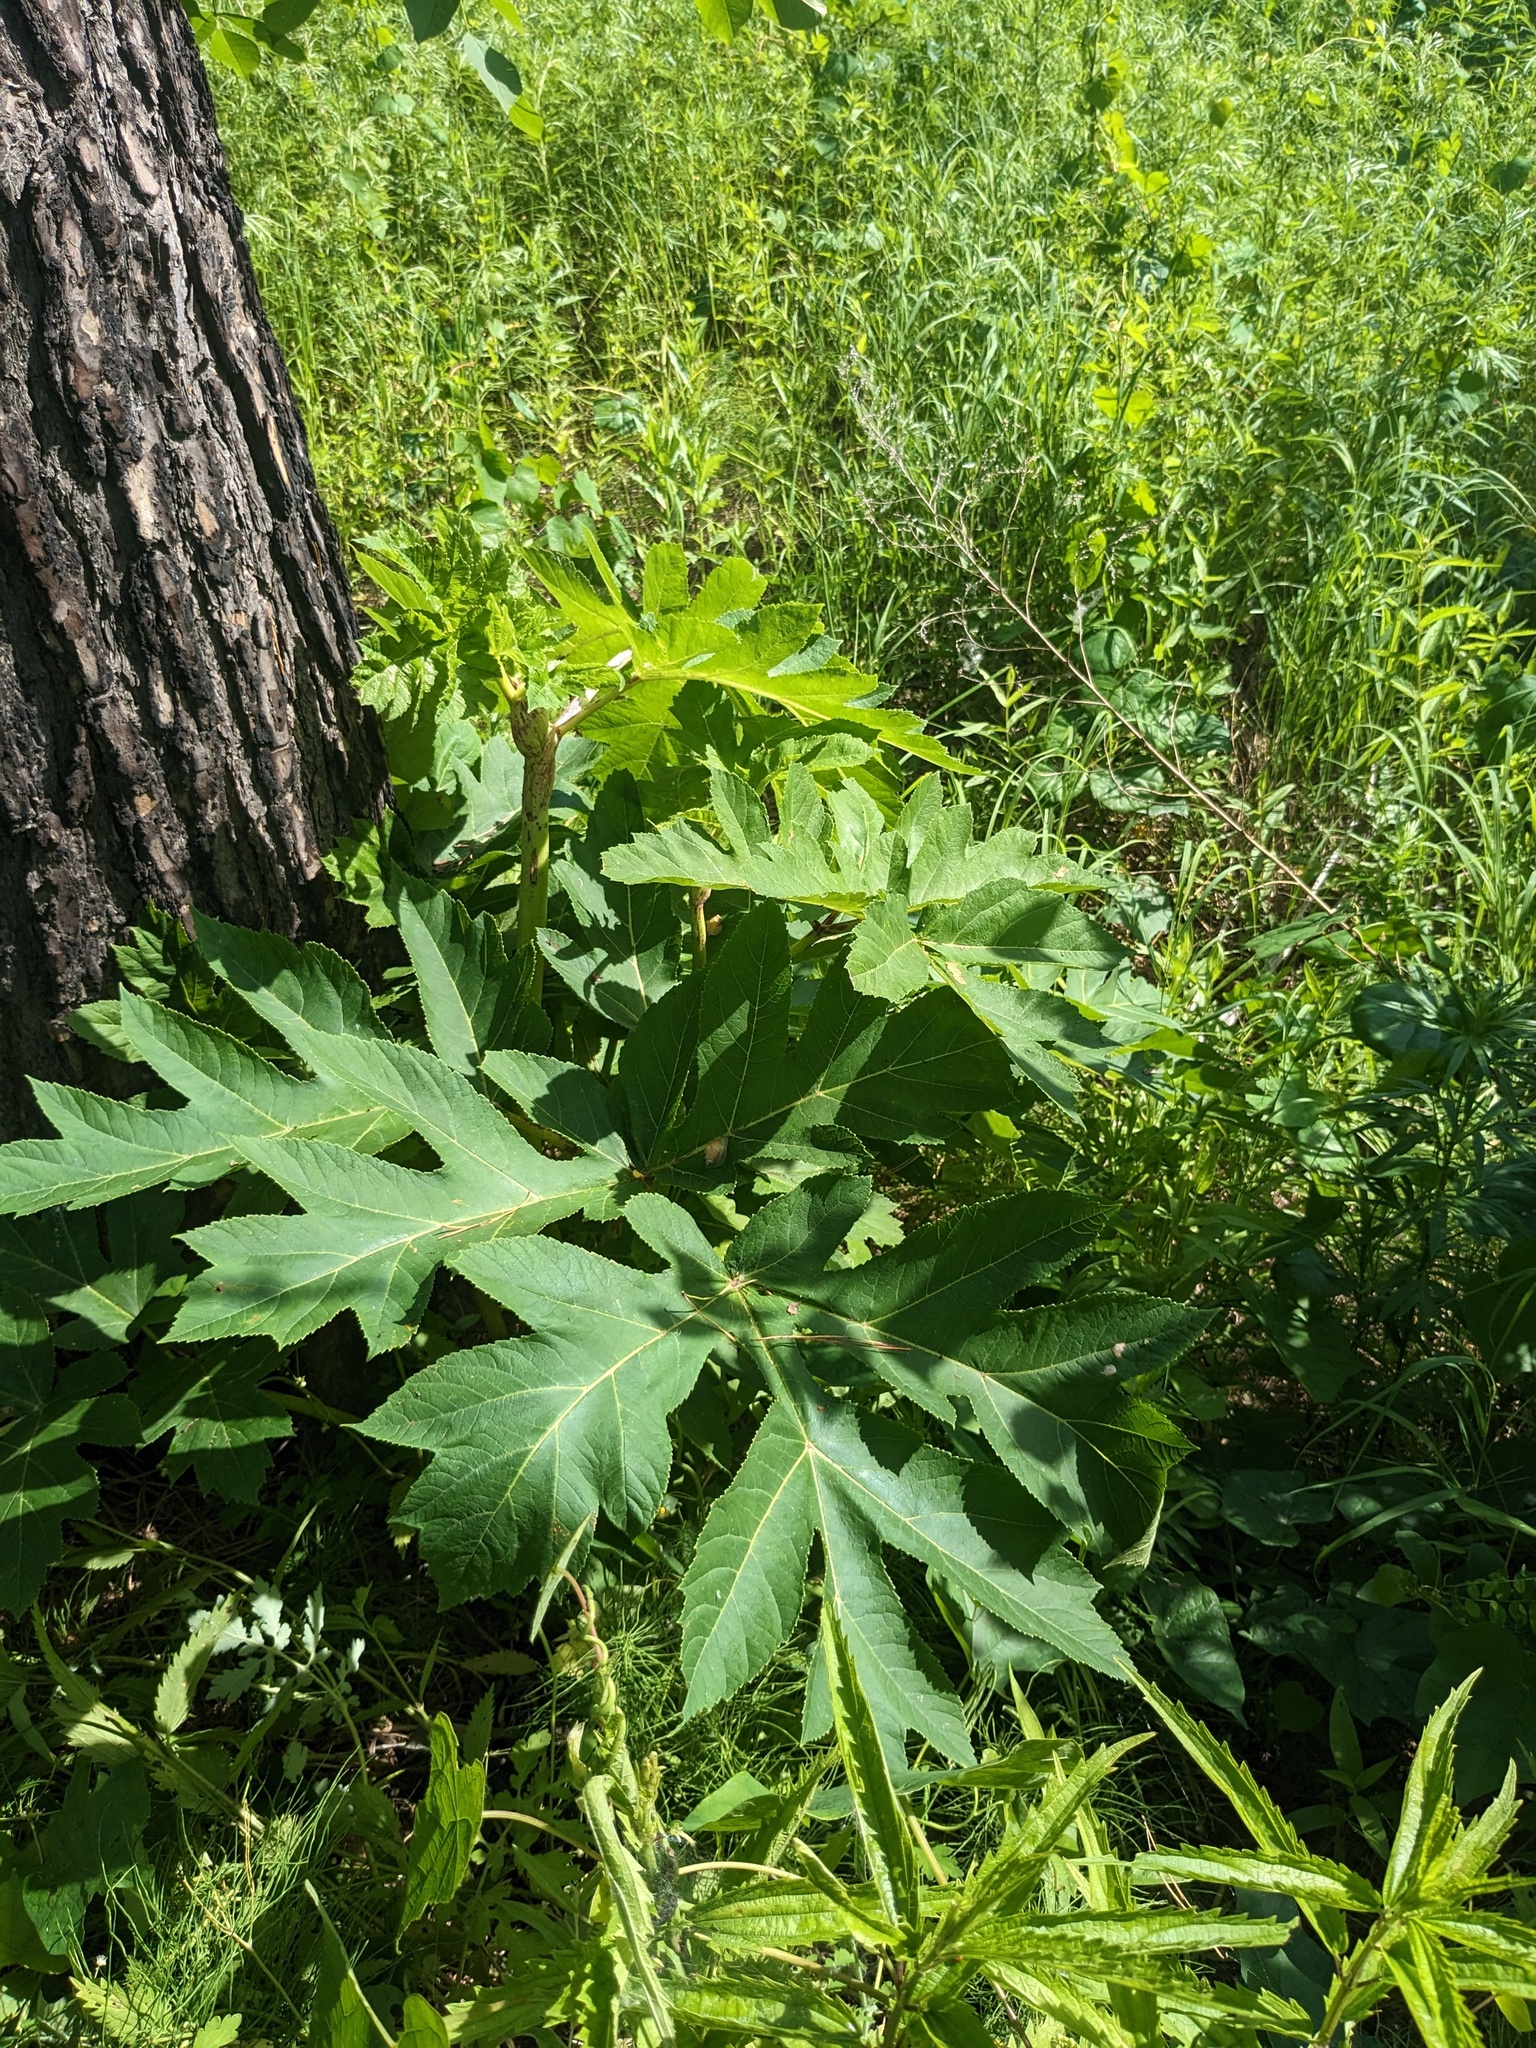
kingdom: Plantae
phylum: Tracheophyta
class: Magnoliopsida
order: Apiales
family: Apiaceae
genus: Heracleum
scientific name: Heracleum dissectum
